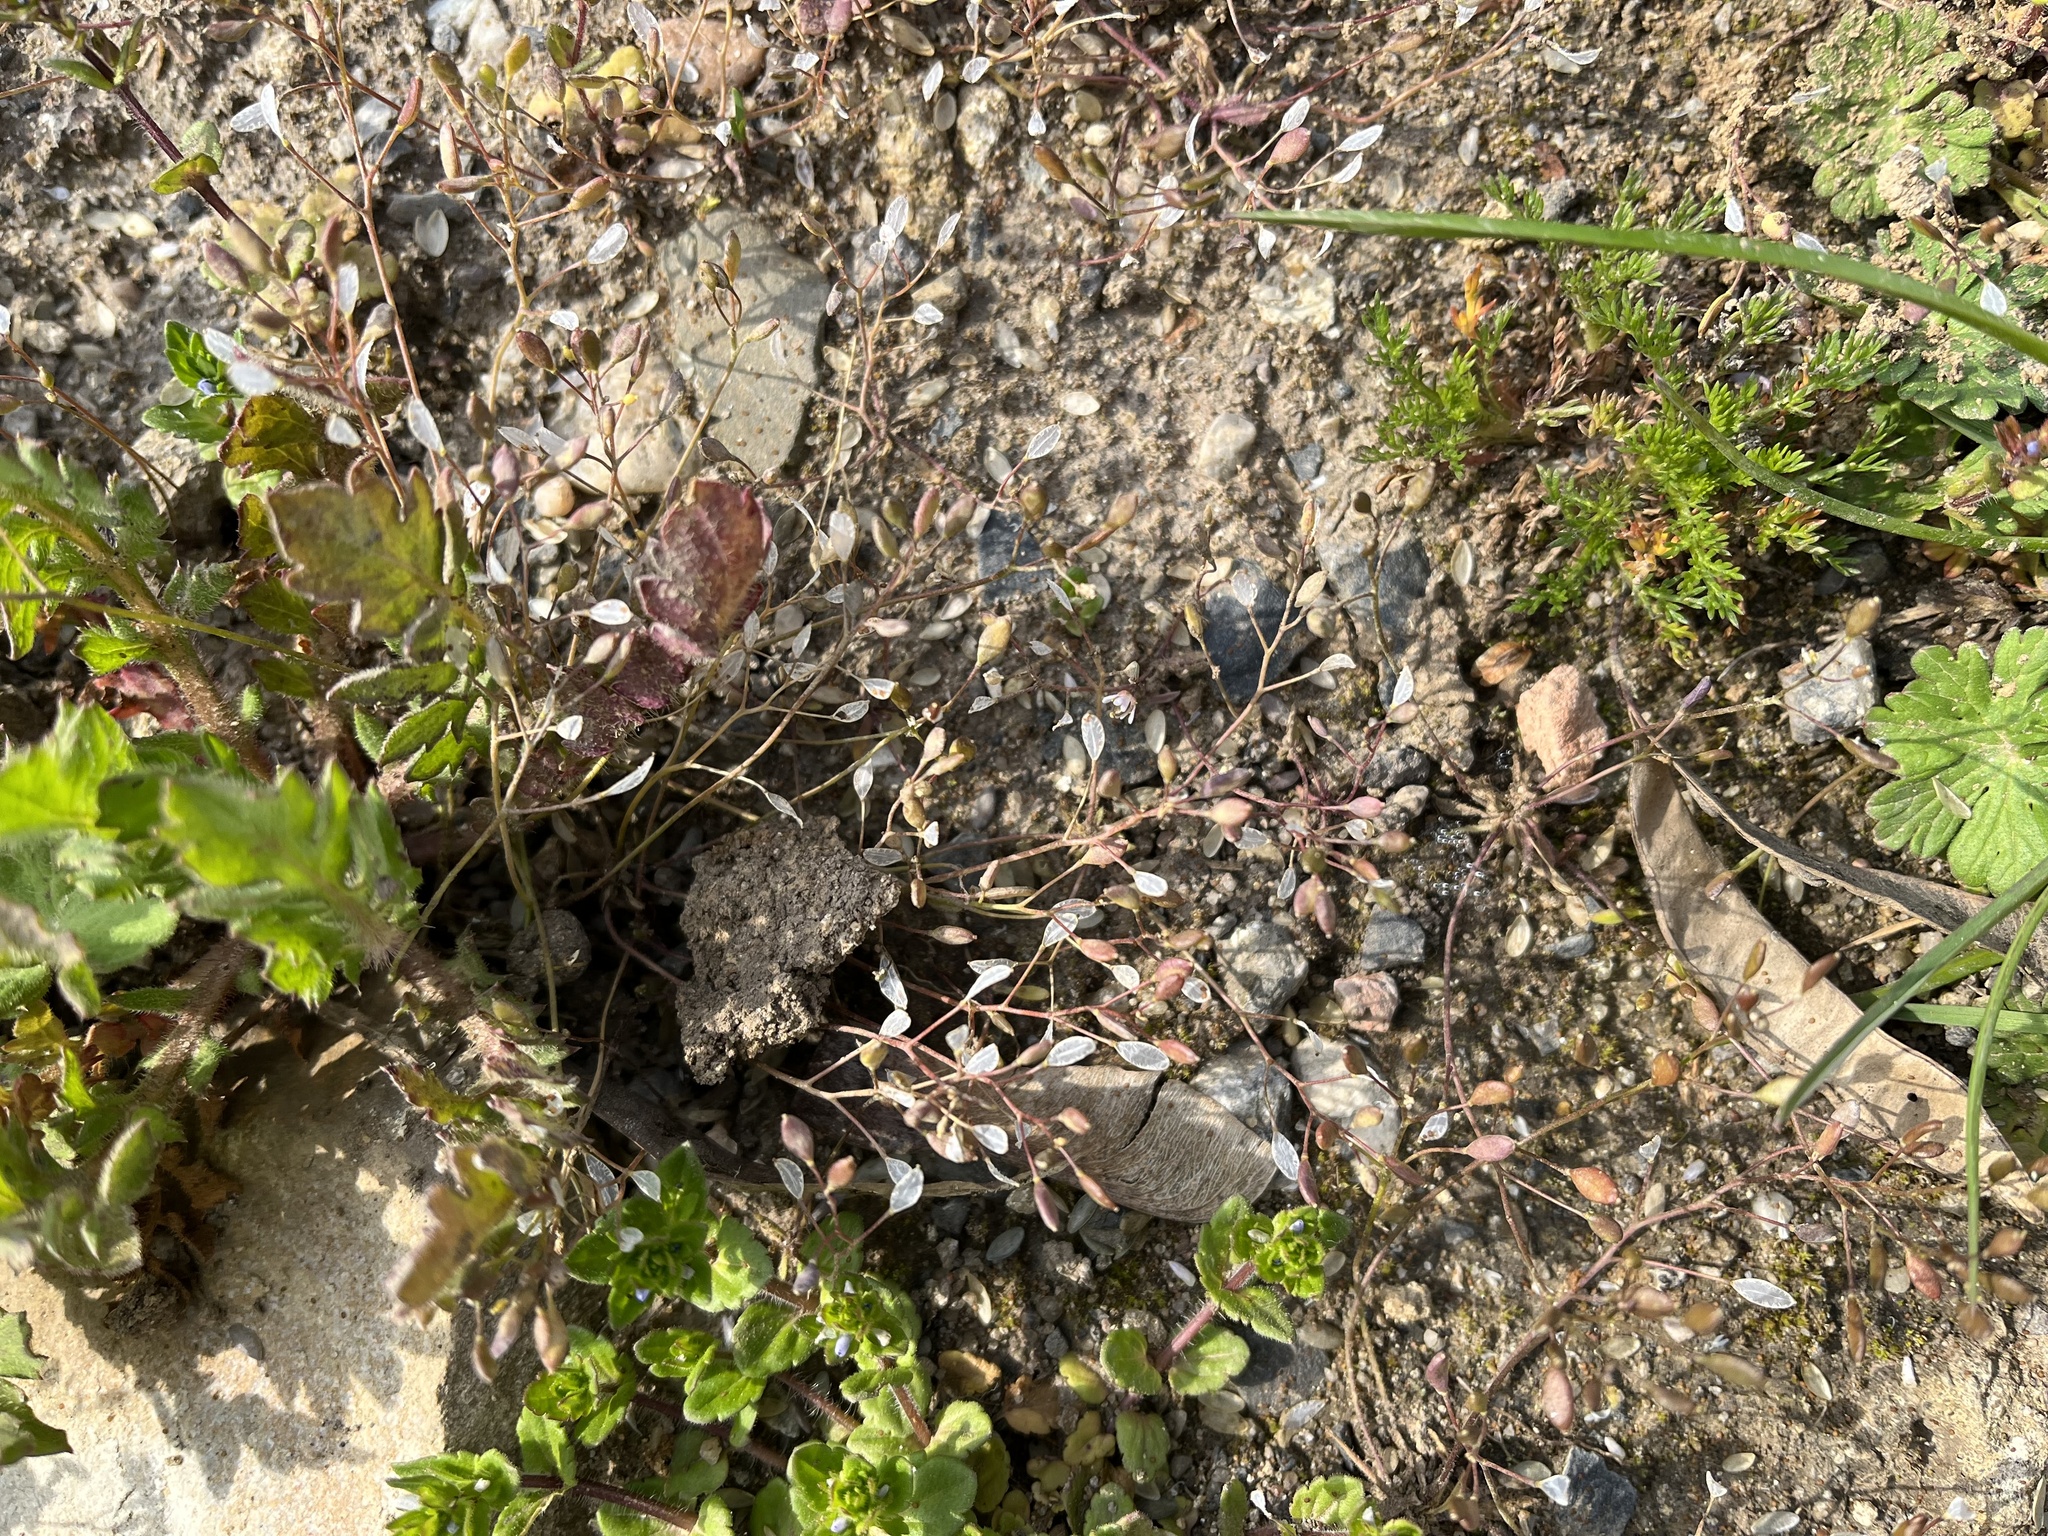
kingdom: Plantae
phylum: Tracheophyta
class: Magnoliopsida
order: Brassicales
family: Brassicaceae
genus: Draba
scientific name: Draba verna
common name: Spring draba
